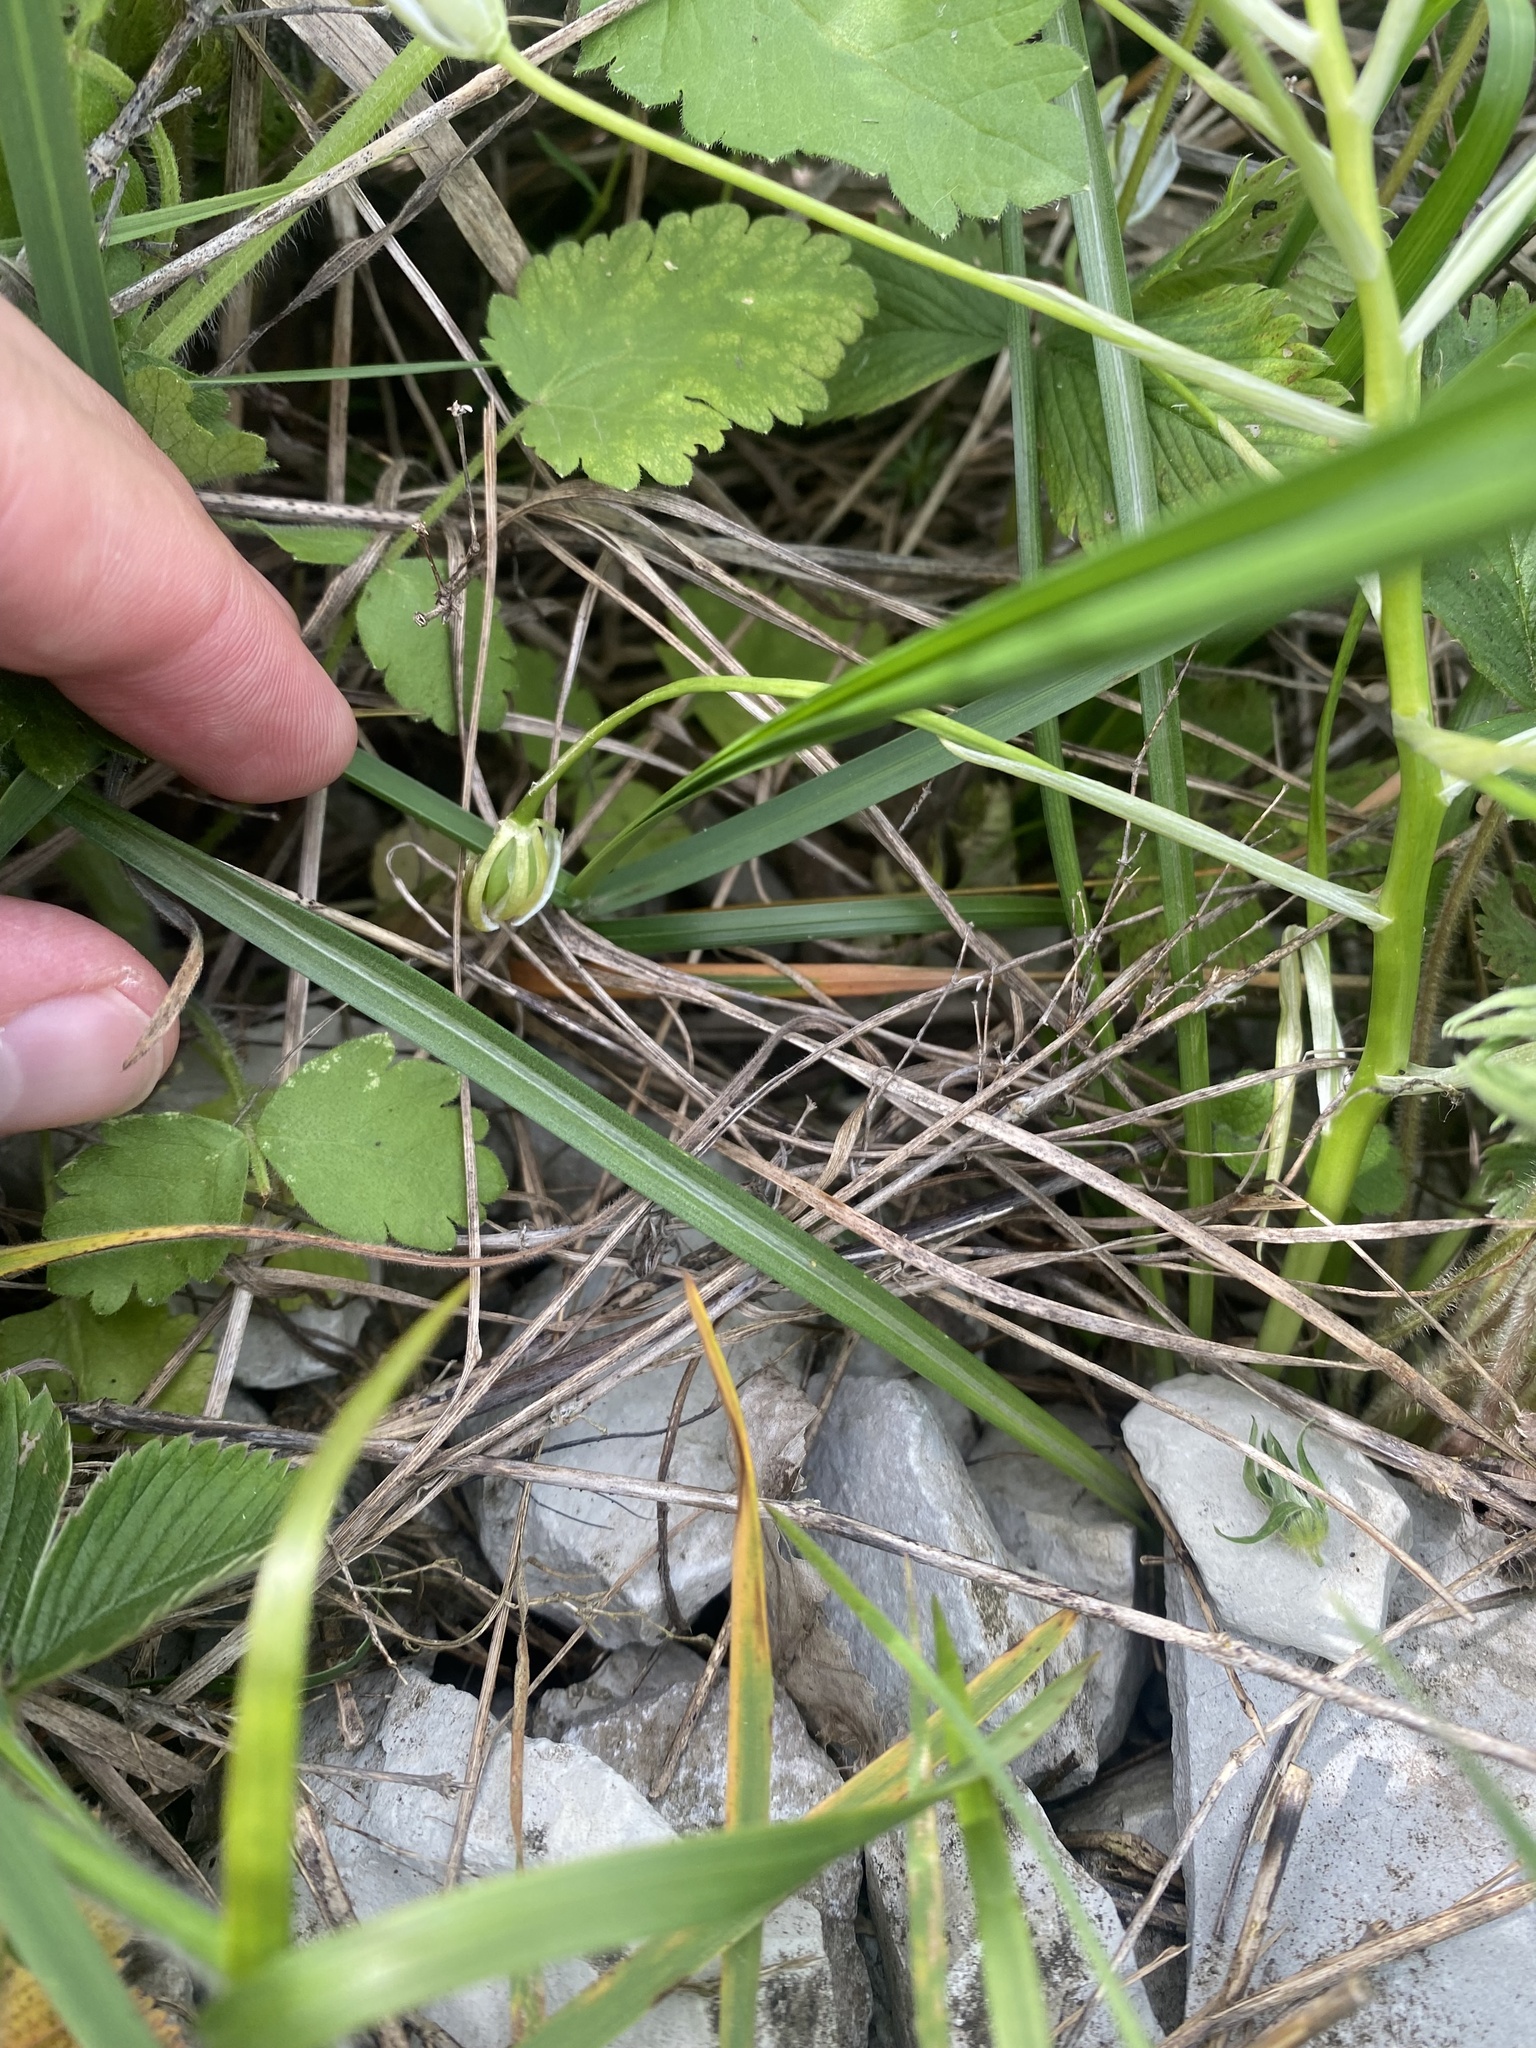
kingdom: Plantae
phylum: Tracheophyta
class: Liliopsida
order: Asparagales
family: Asparagaceae
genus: Ornithogalum
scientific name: Ornithogalum woronowii
